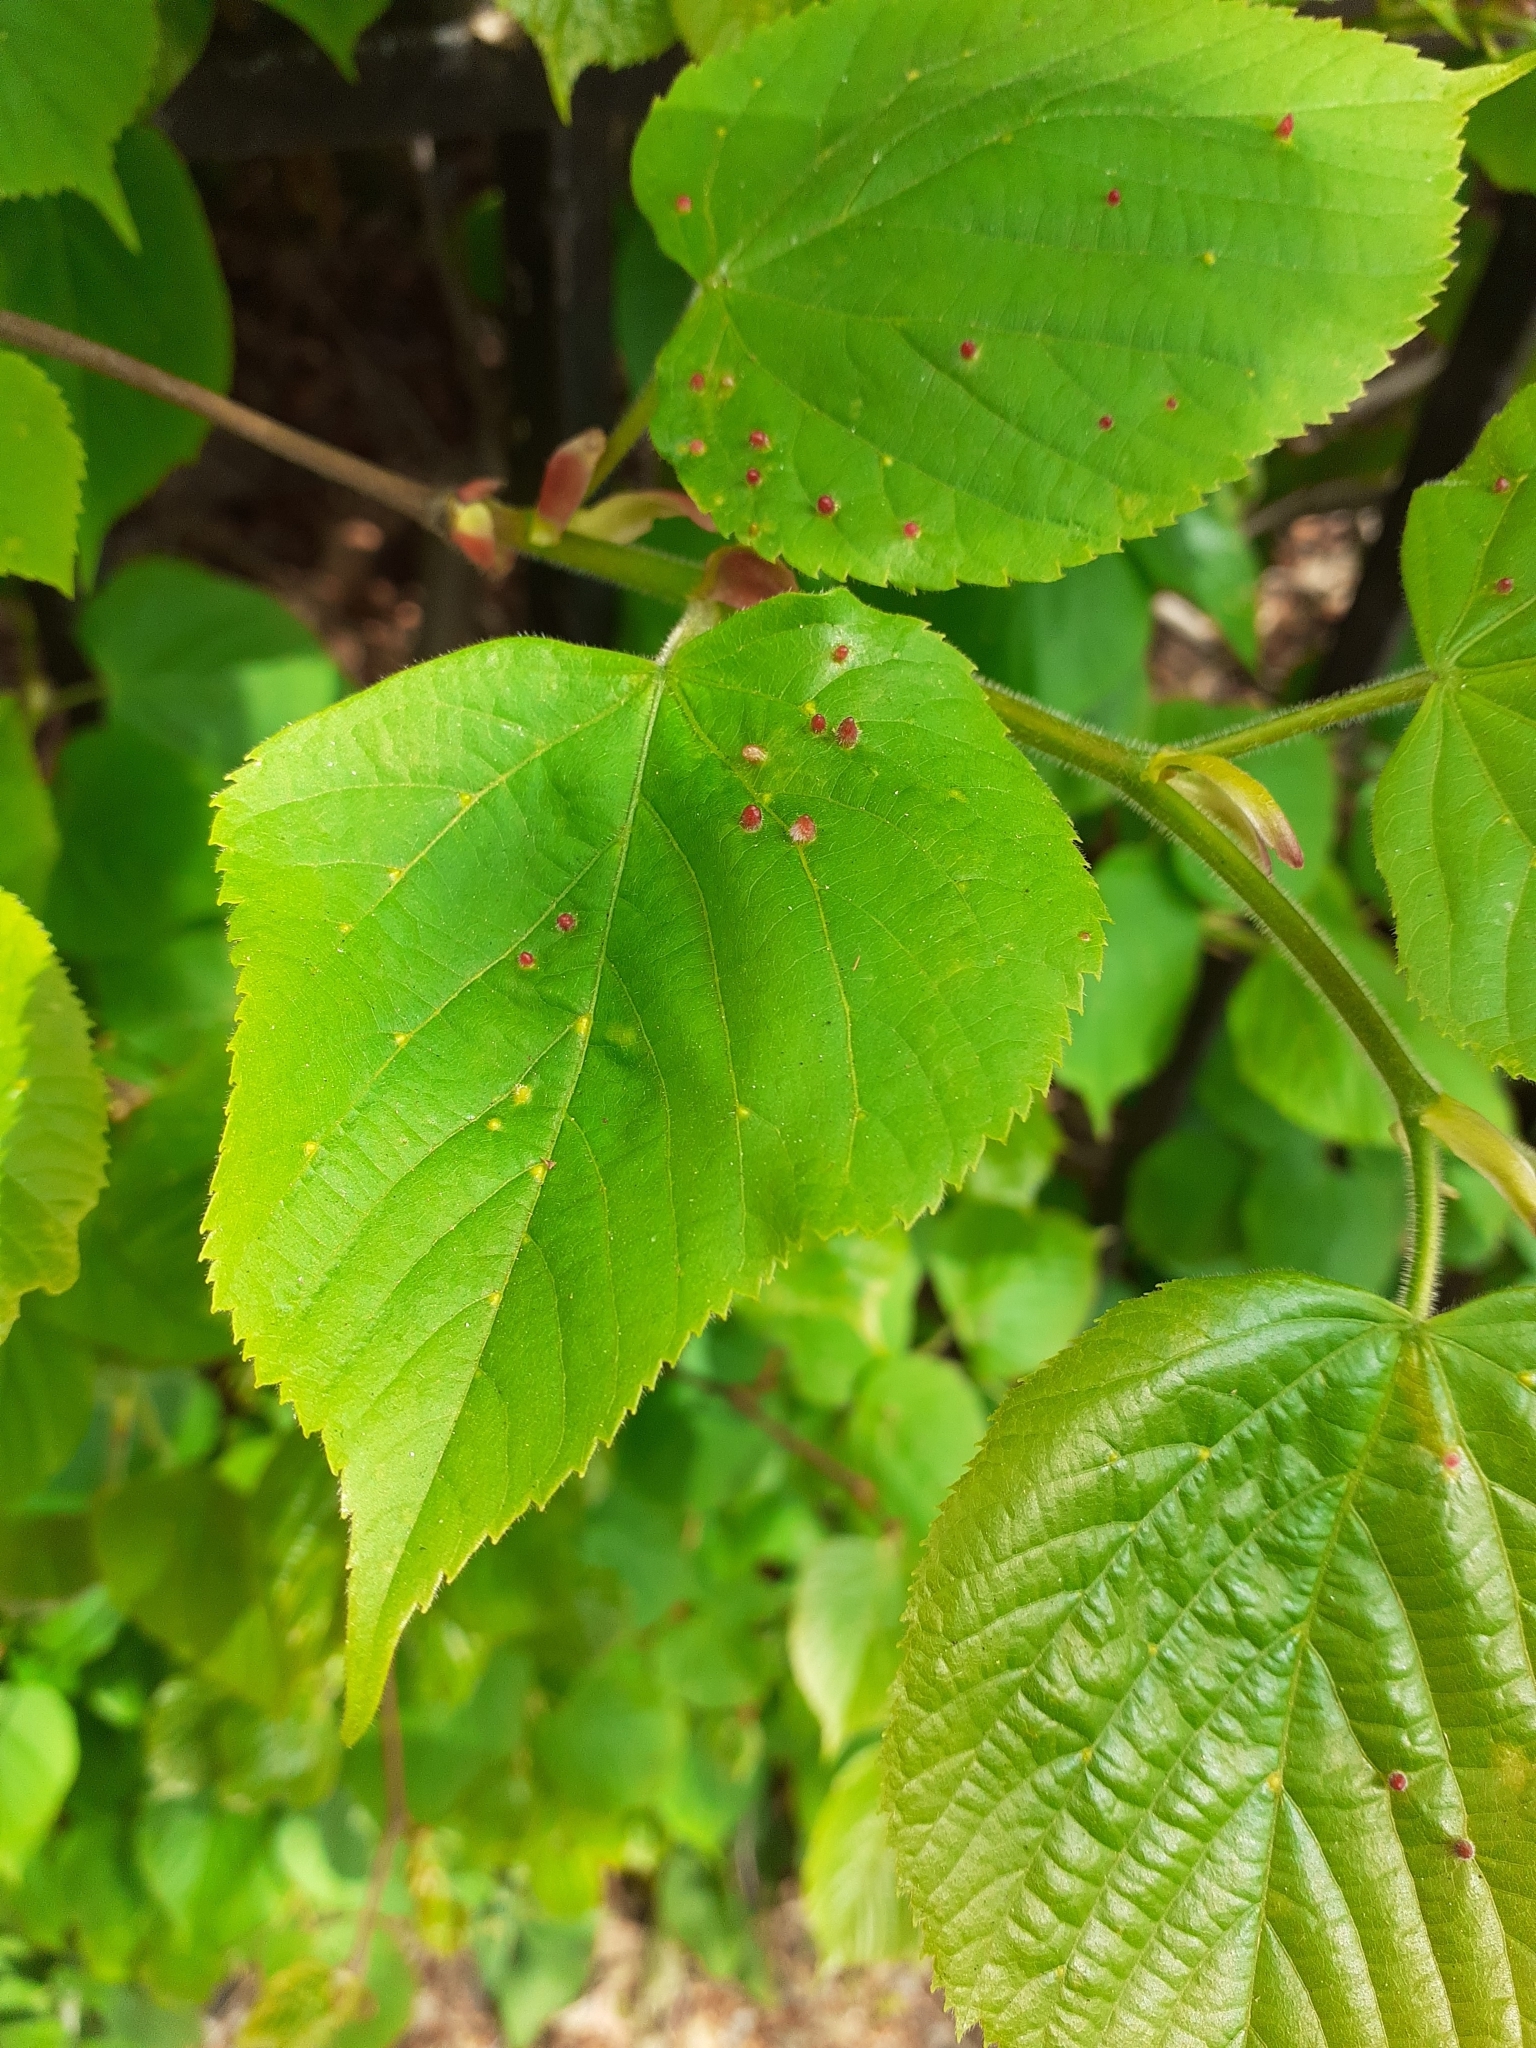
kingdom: Animalia
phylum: Arthropoda
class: Arachnida
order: Trombidiformes
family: Eriophyidae
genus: Eriophyes
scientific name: Eriophyes tiliae
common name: Red nail gall mite
